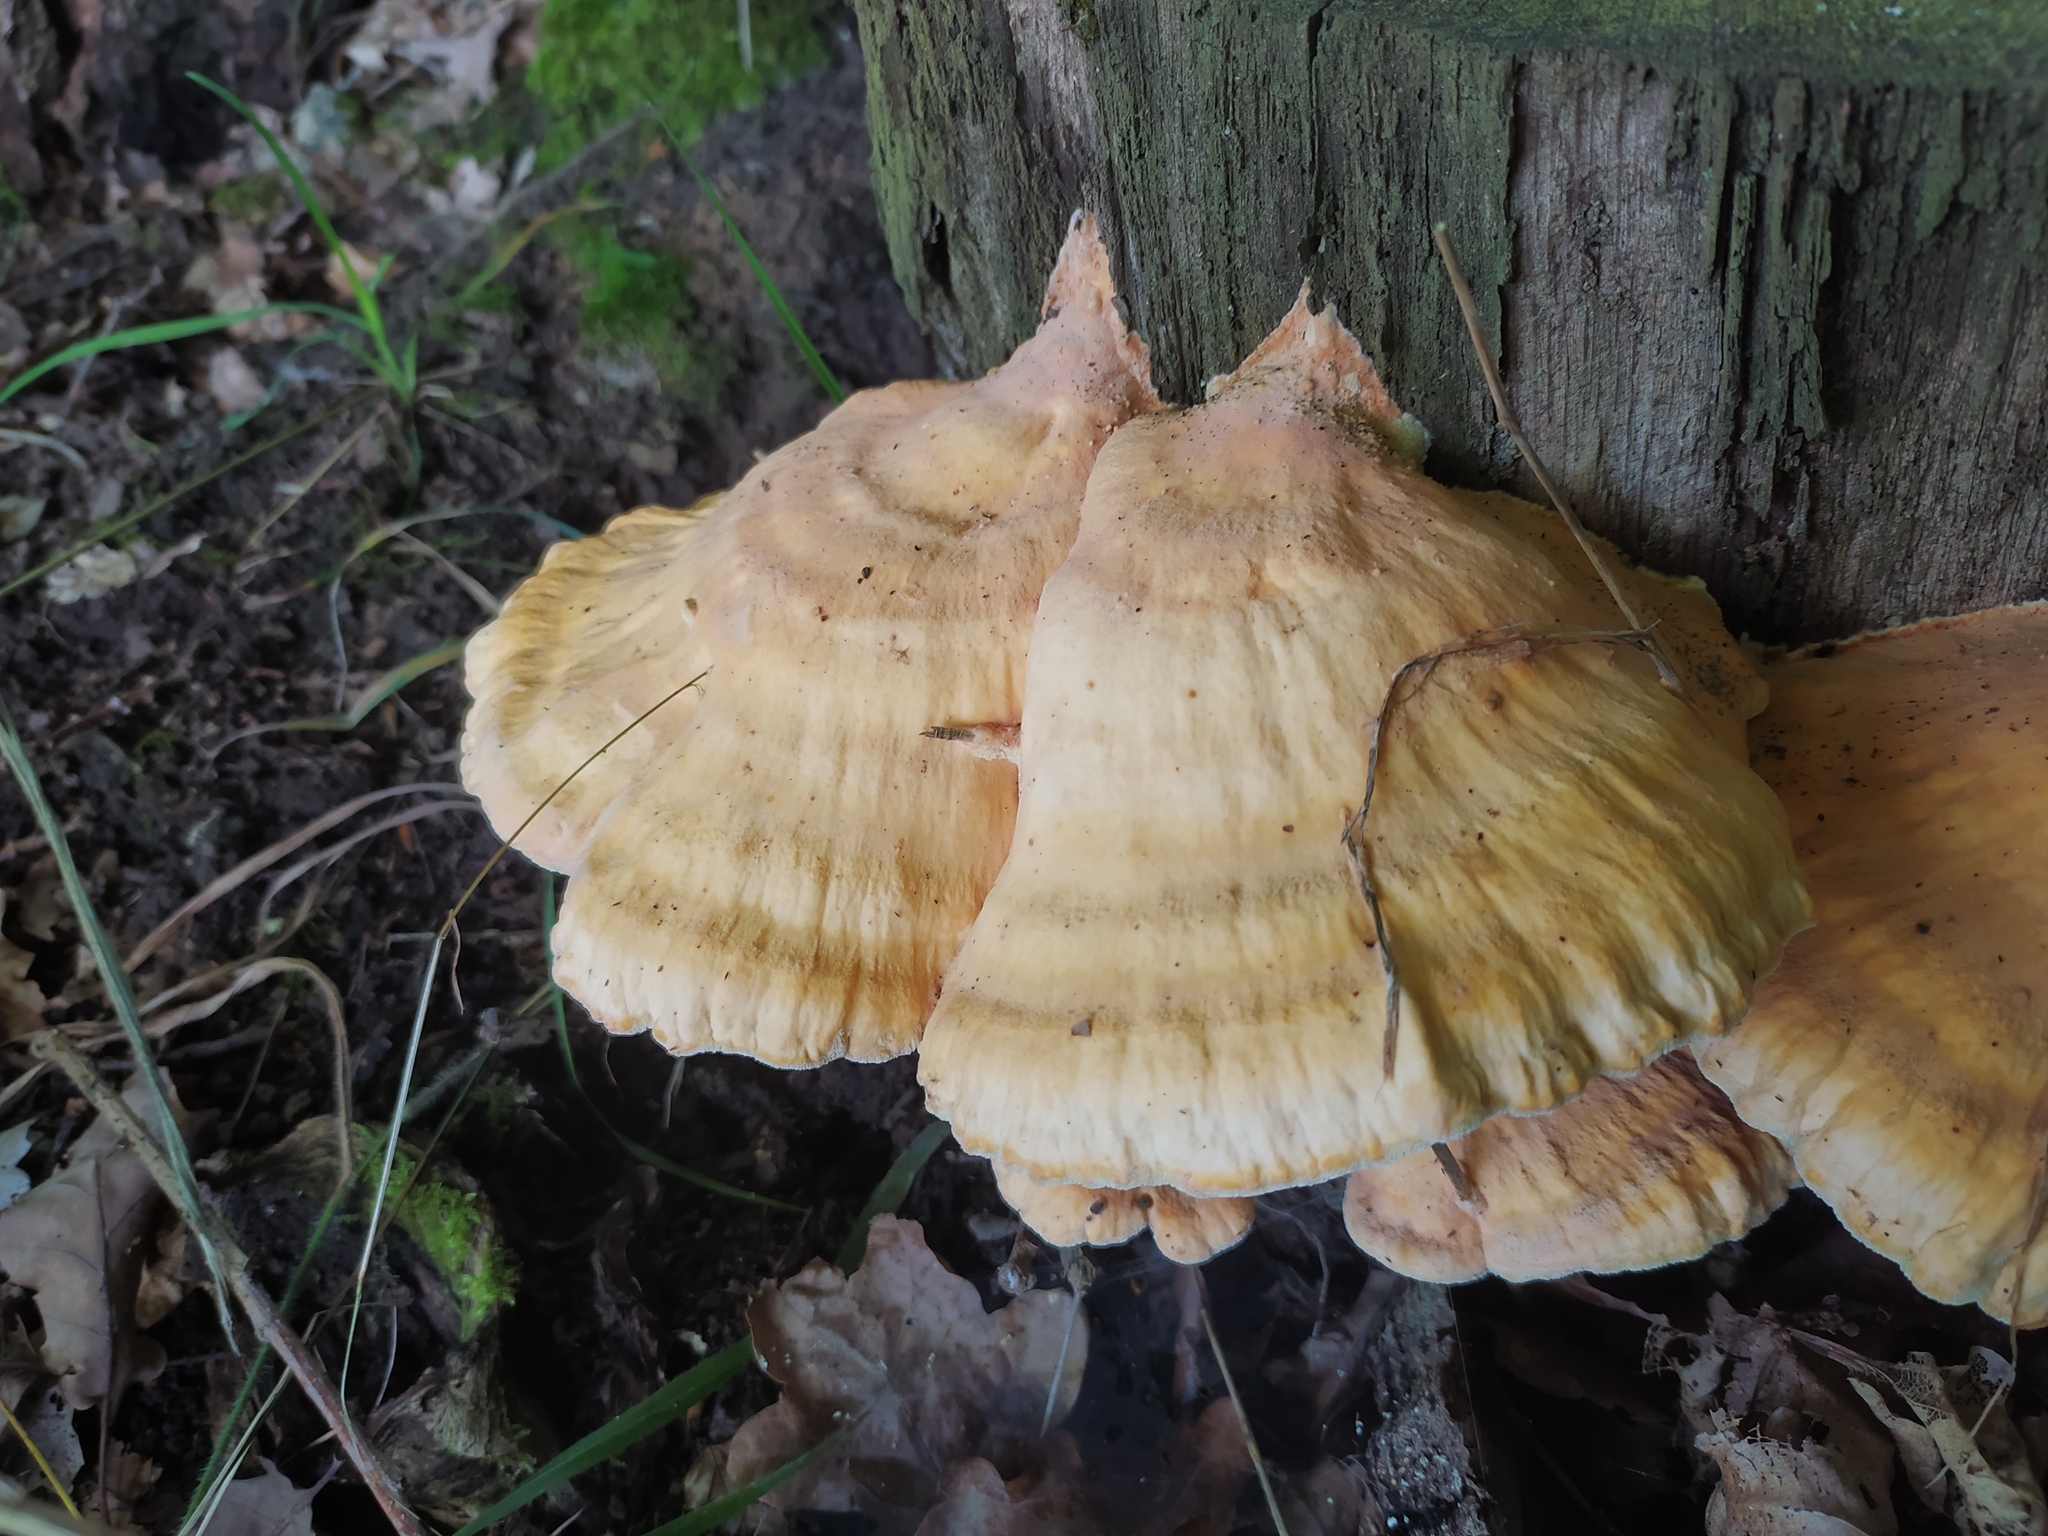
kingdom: Fungi
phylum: Basidiomycota
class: Agaricomycetes
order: Polyporales
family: Laetiporaceae
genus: Laetiporus
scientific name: Laetiporus sulphureus
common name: Chicken of the woods
